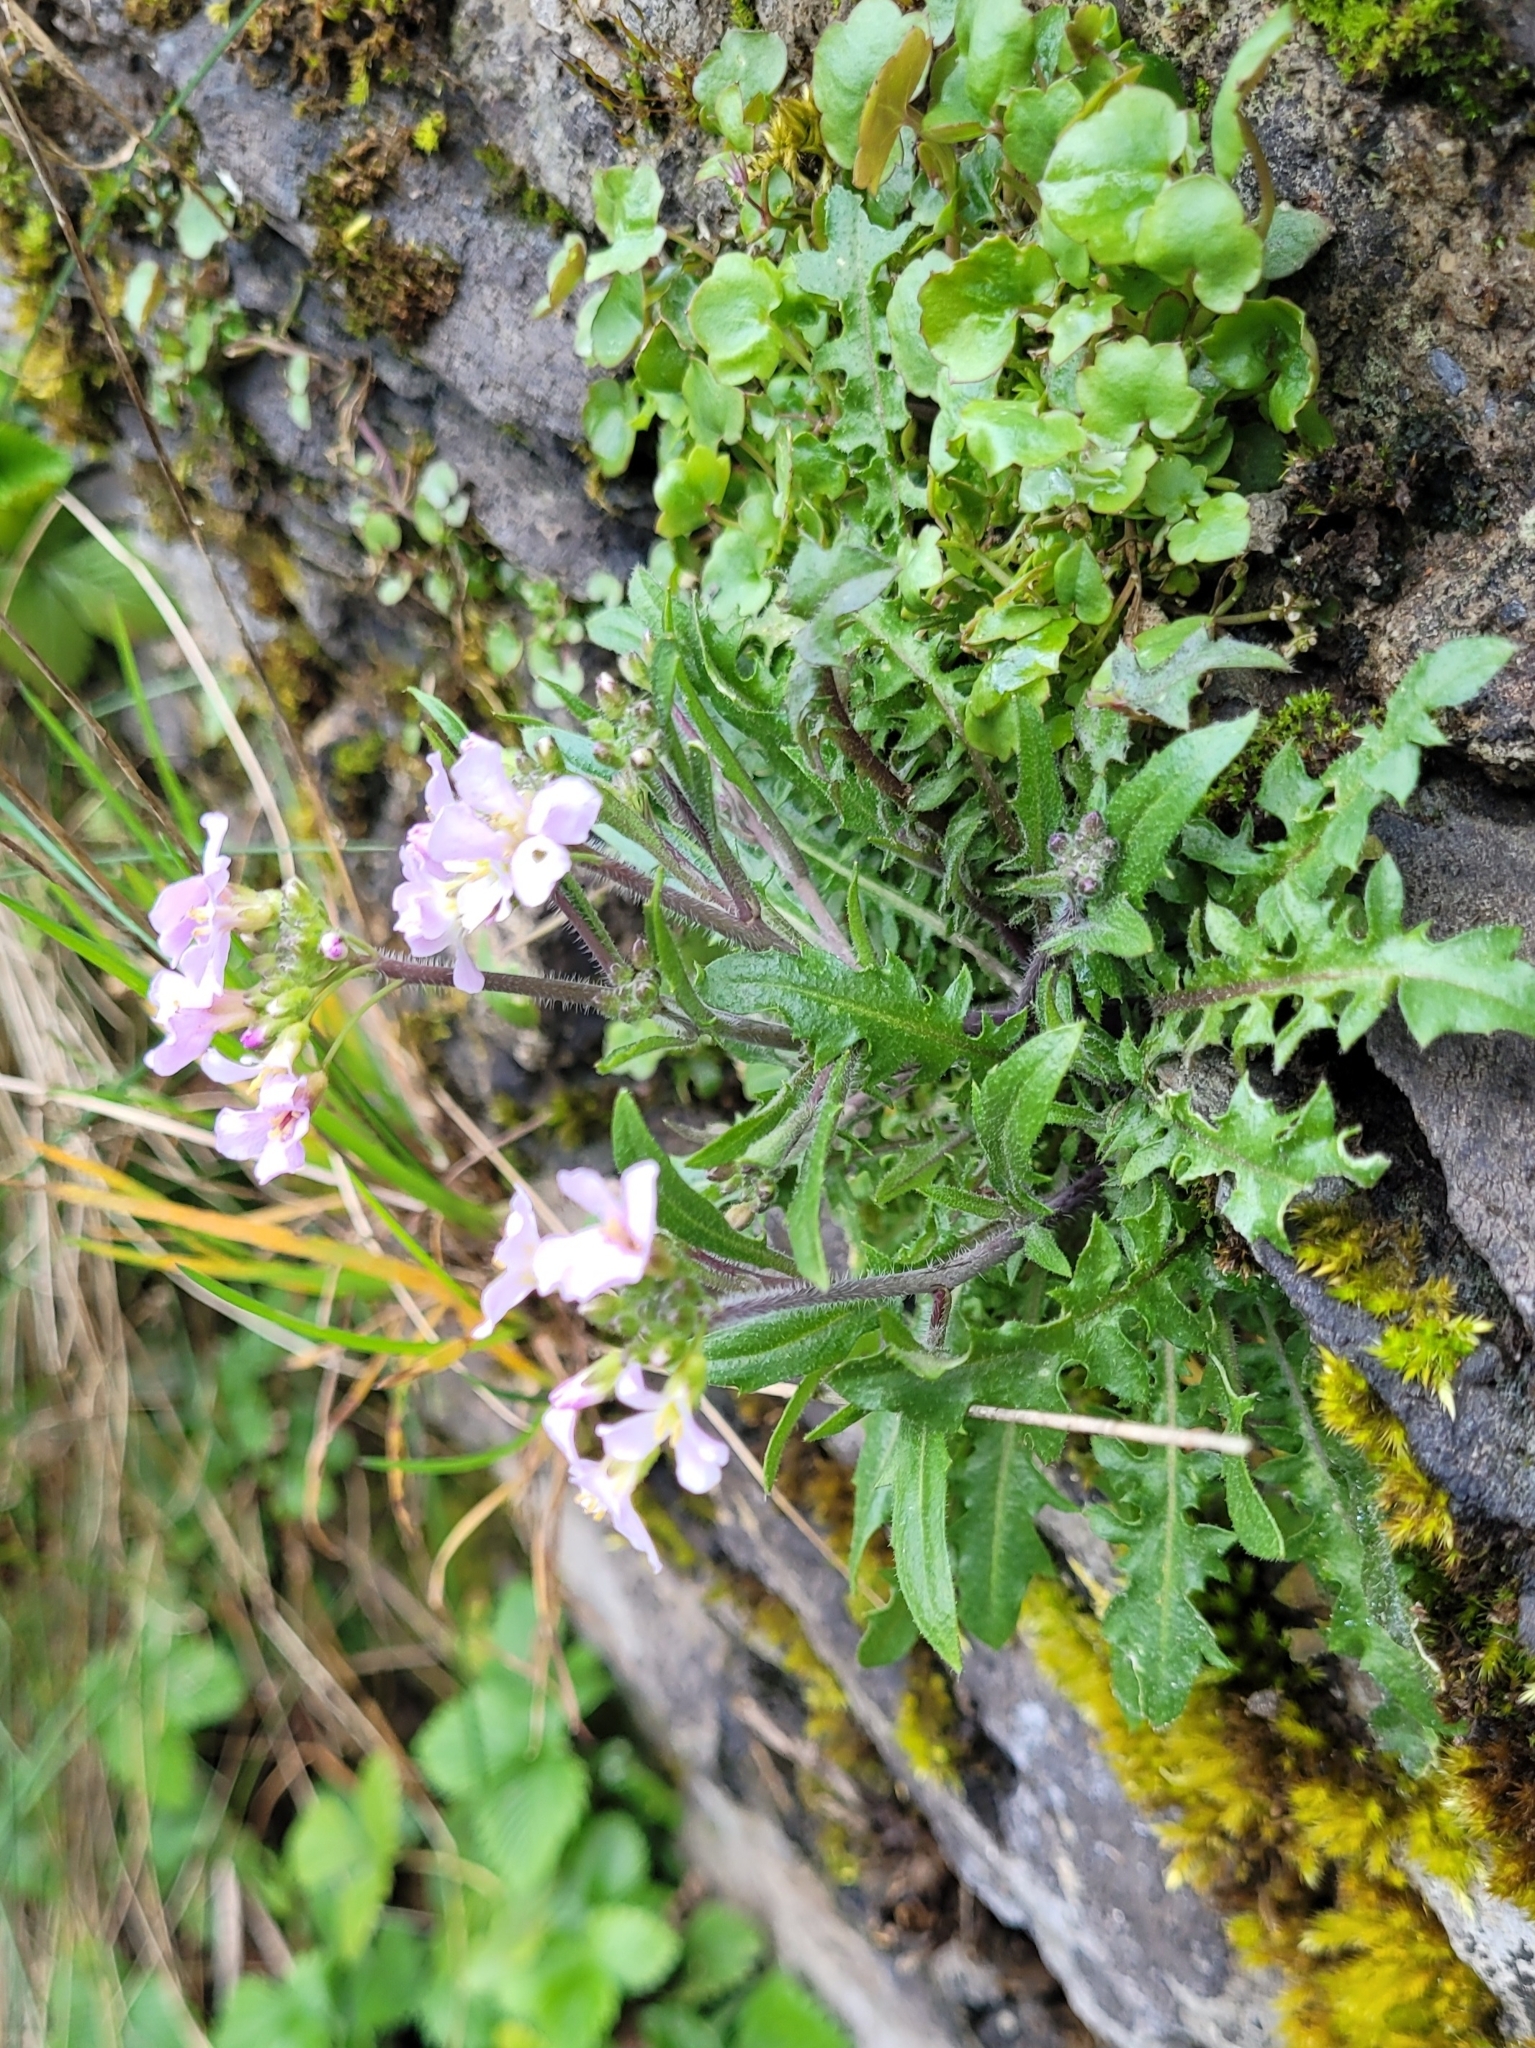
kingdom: Plantae
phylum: Tracheophyta
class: Magnoliopsida
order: Brassicales
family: Brassicaceae
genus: Arabidopsis
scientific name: Arabidopsis arenosa
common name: Sand rock-cress
